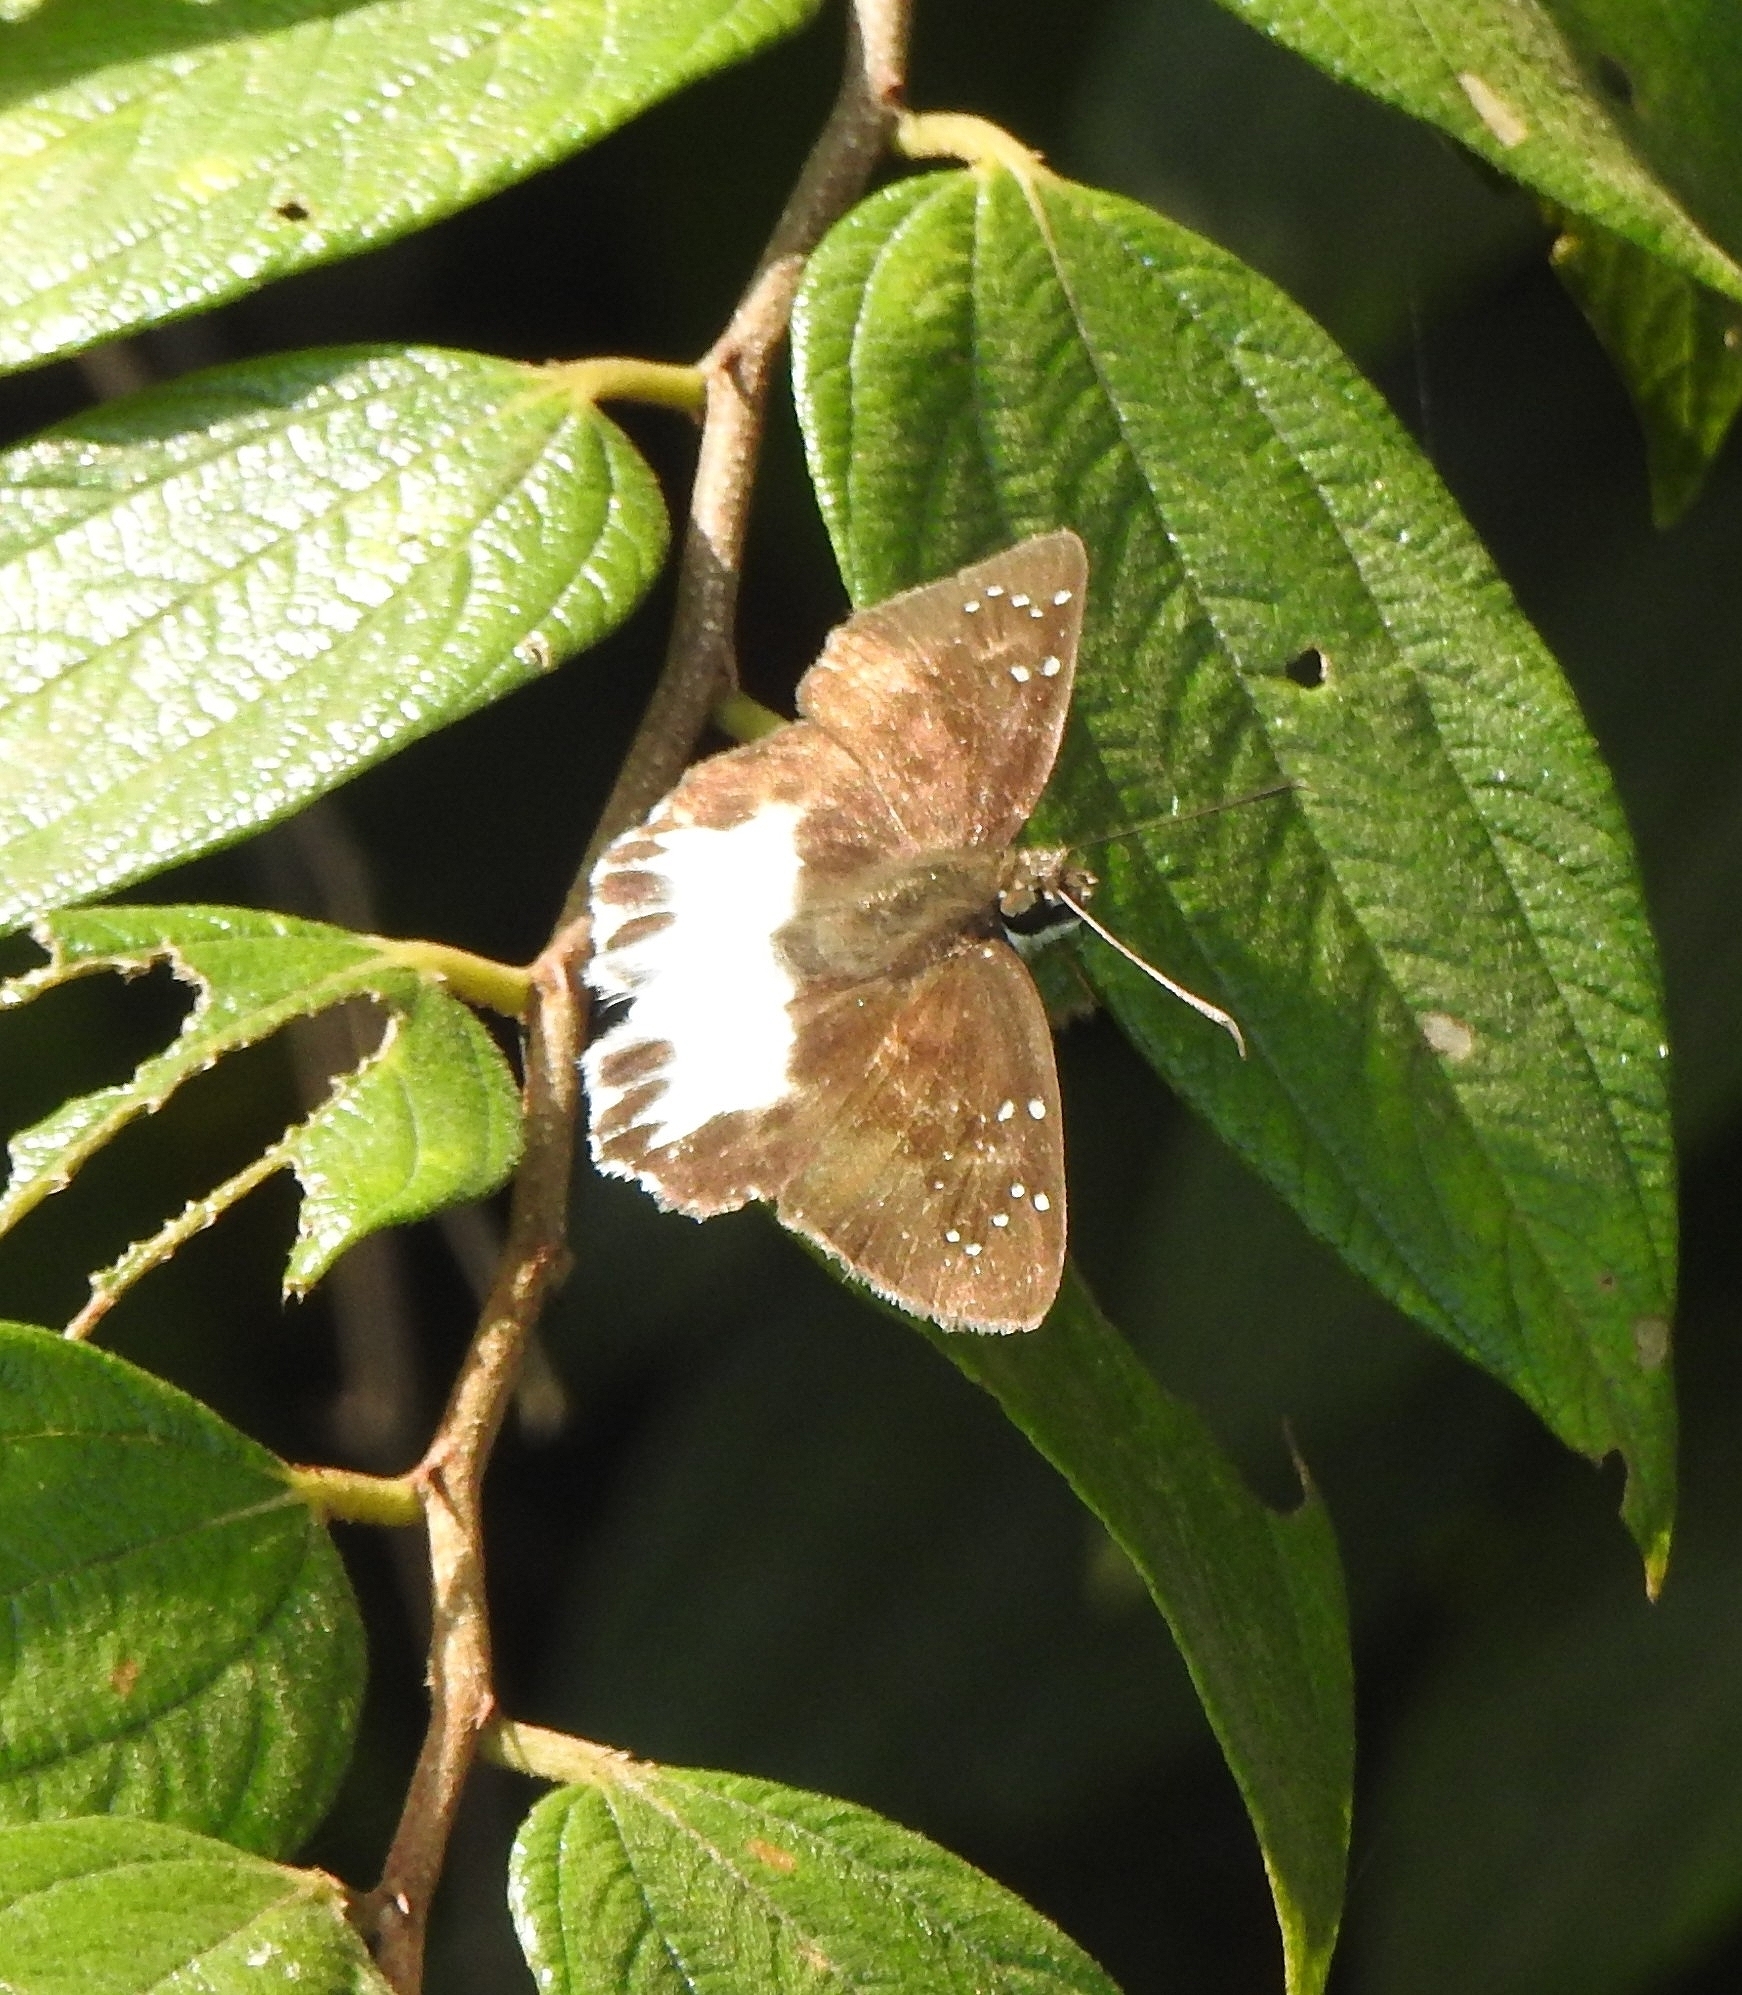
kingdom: Animalia
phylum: Arthropoda
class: Insecta
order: Lepidoptera
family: Hesperiidae
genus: Tagiades
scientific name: Tagiades litigiosa
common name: Water snow flat
